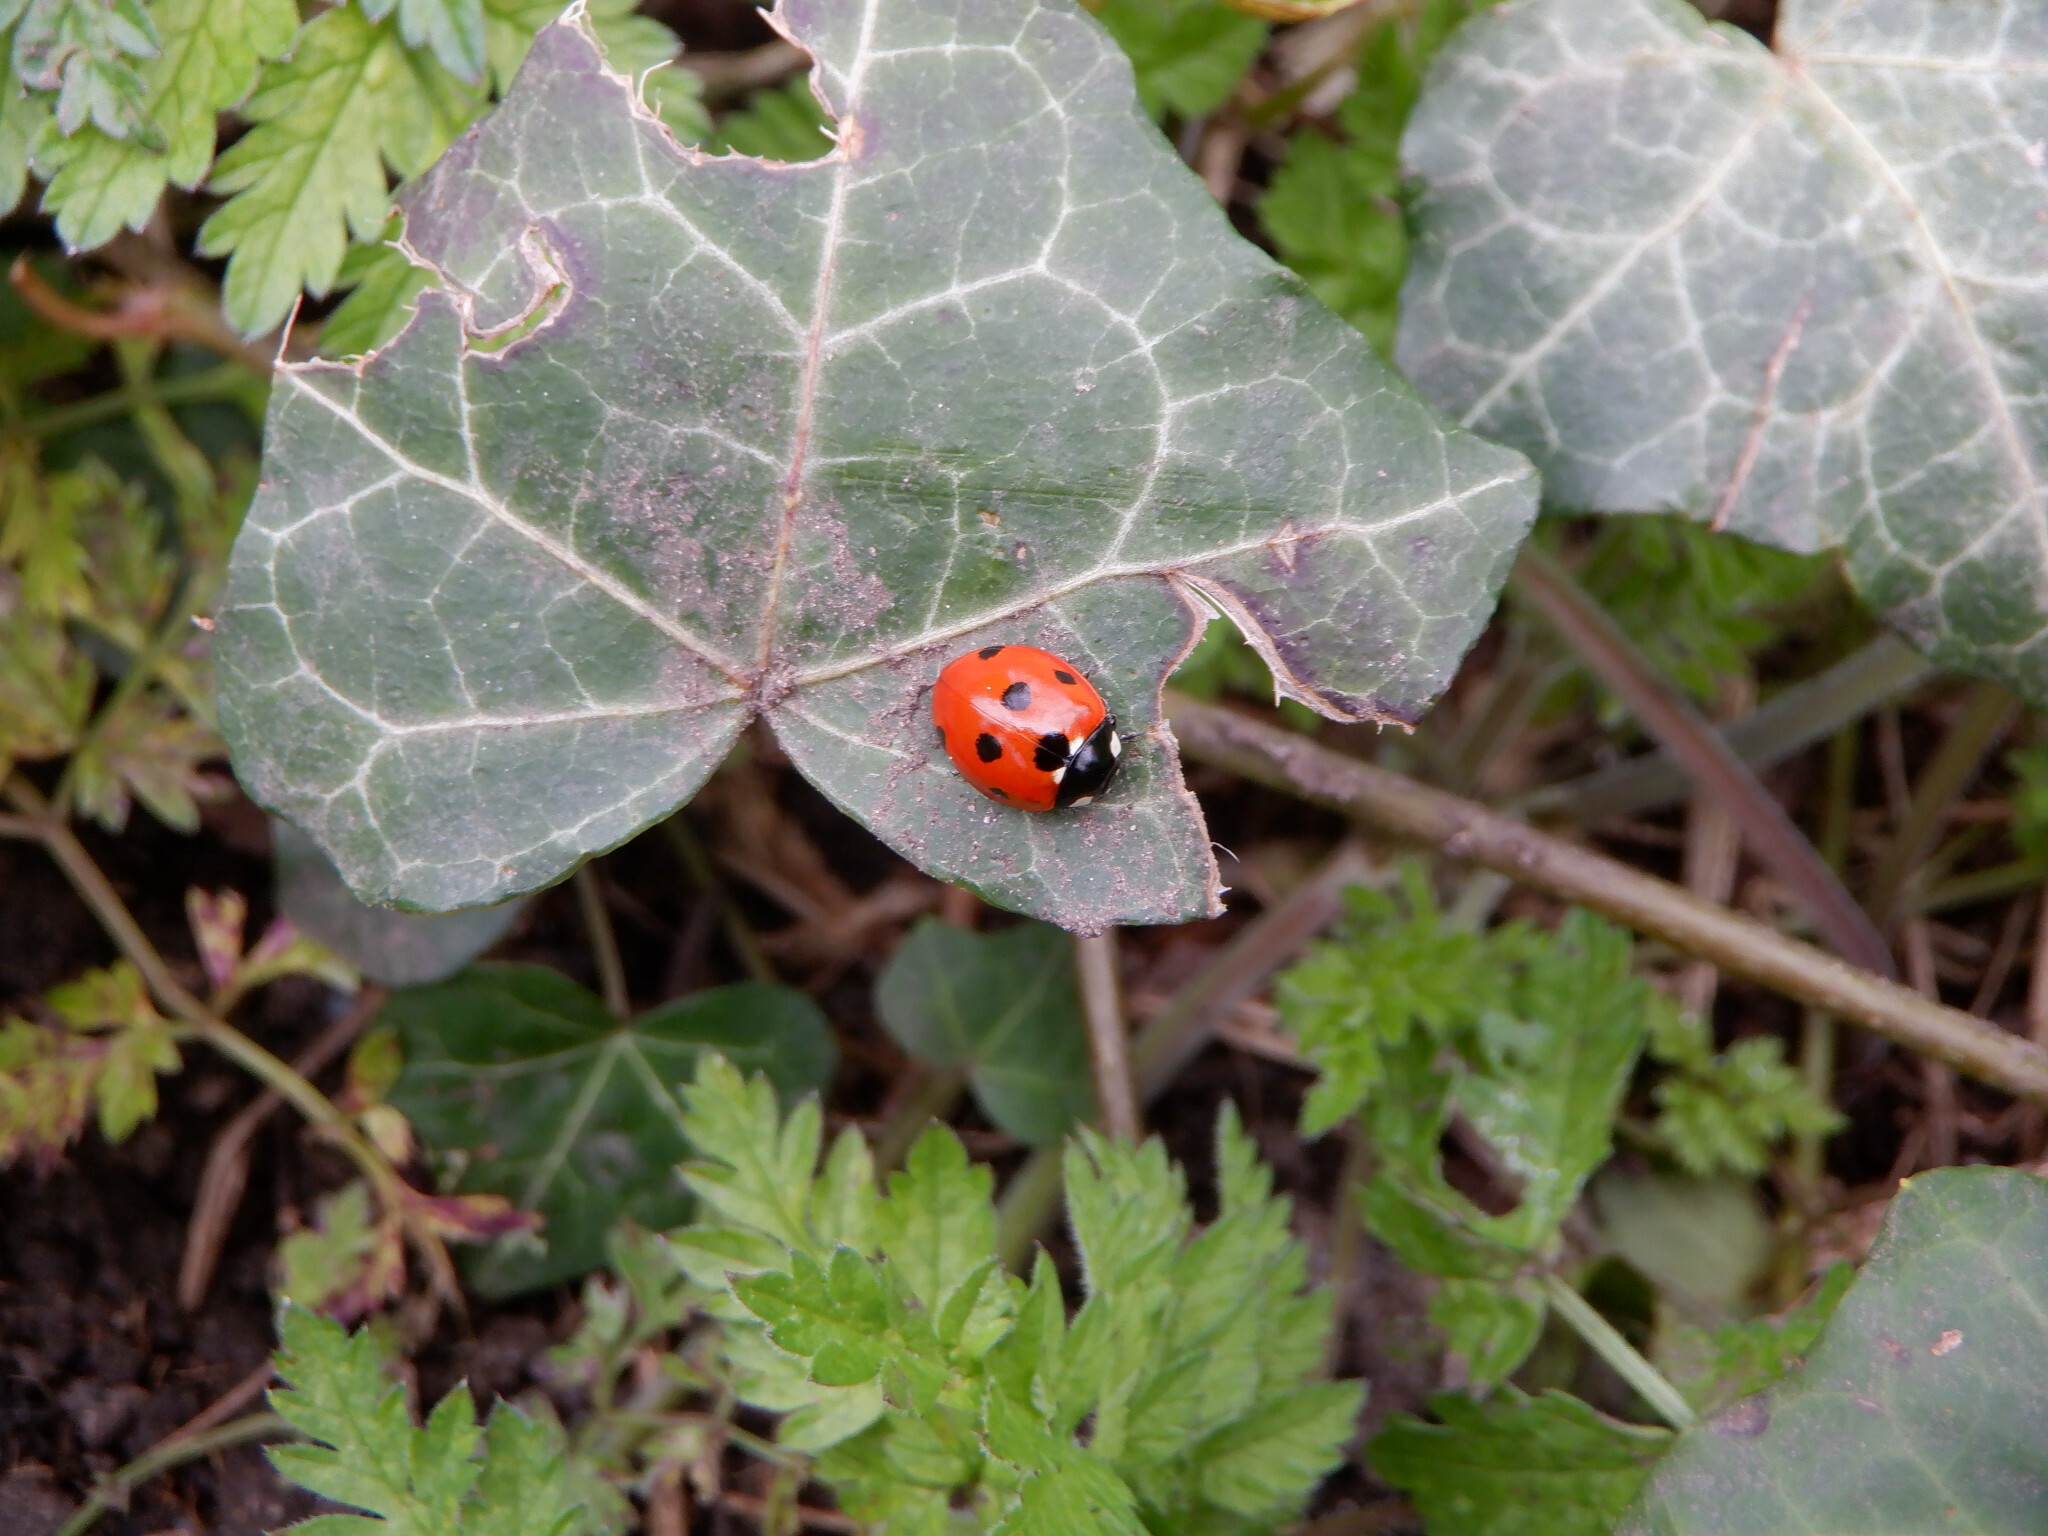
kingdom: Animalia
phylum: Arthropoda
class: Insecta
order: Coleoptera
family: Coccinellidae
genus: Coccinella
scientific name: Coccinella septempunctata
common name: Sevenspotted lady beetle
